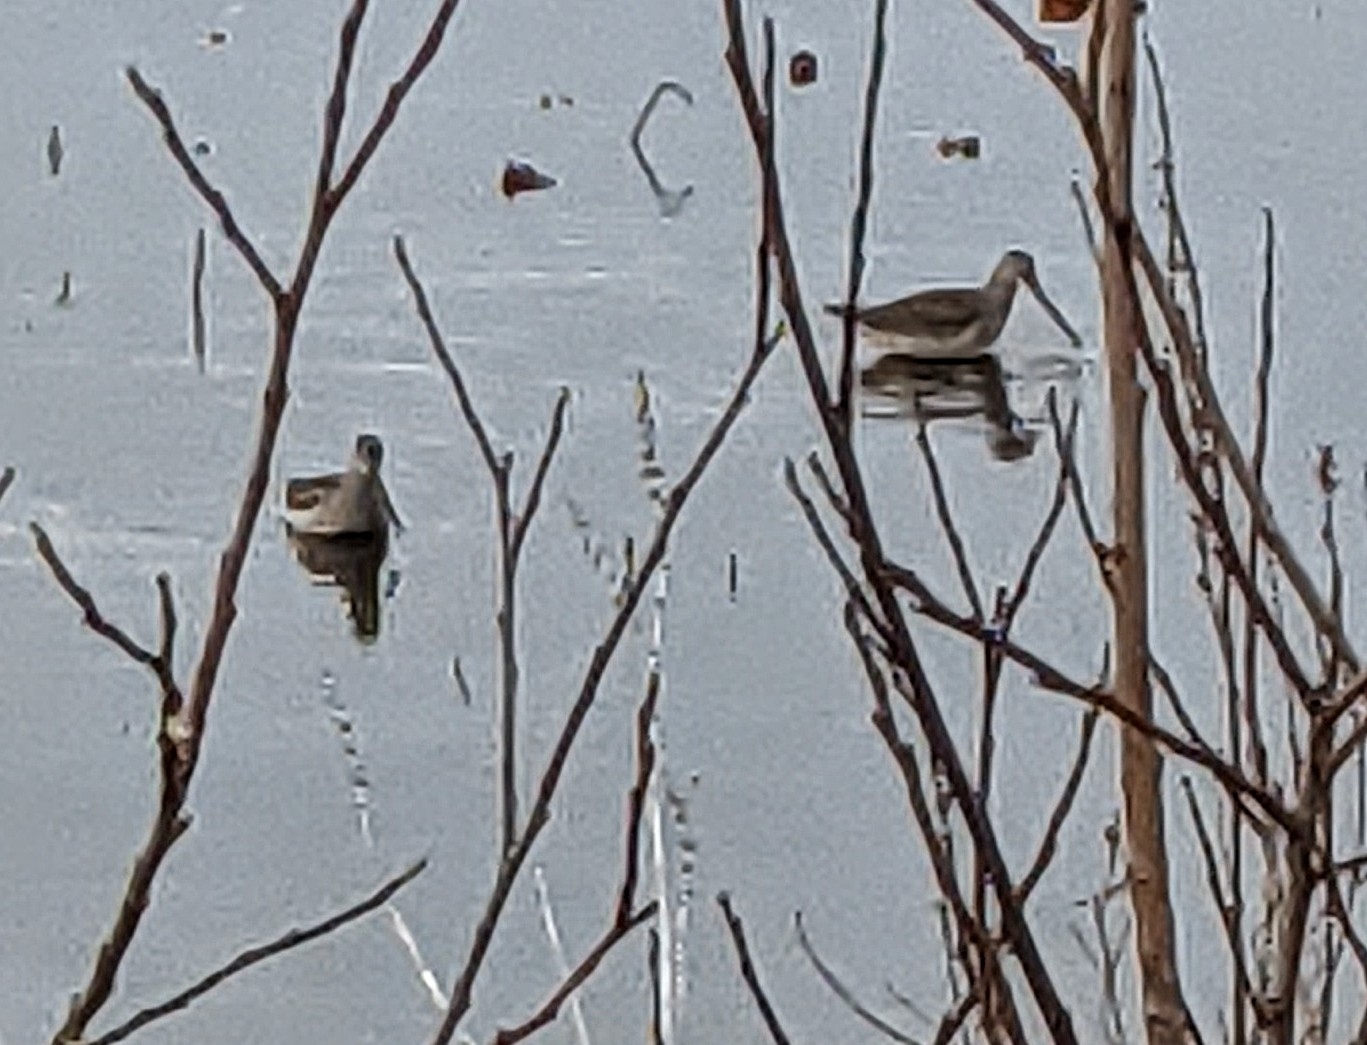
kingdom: Animalia
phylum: Chordata
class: Aves
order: Charadriiformes
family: Scolopacidae
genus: Limnodromus
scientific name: Limnodromus
